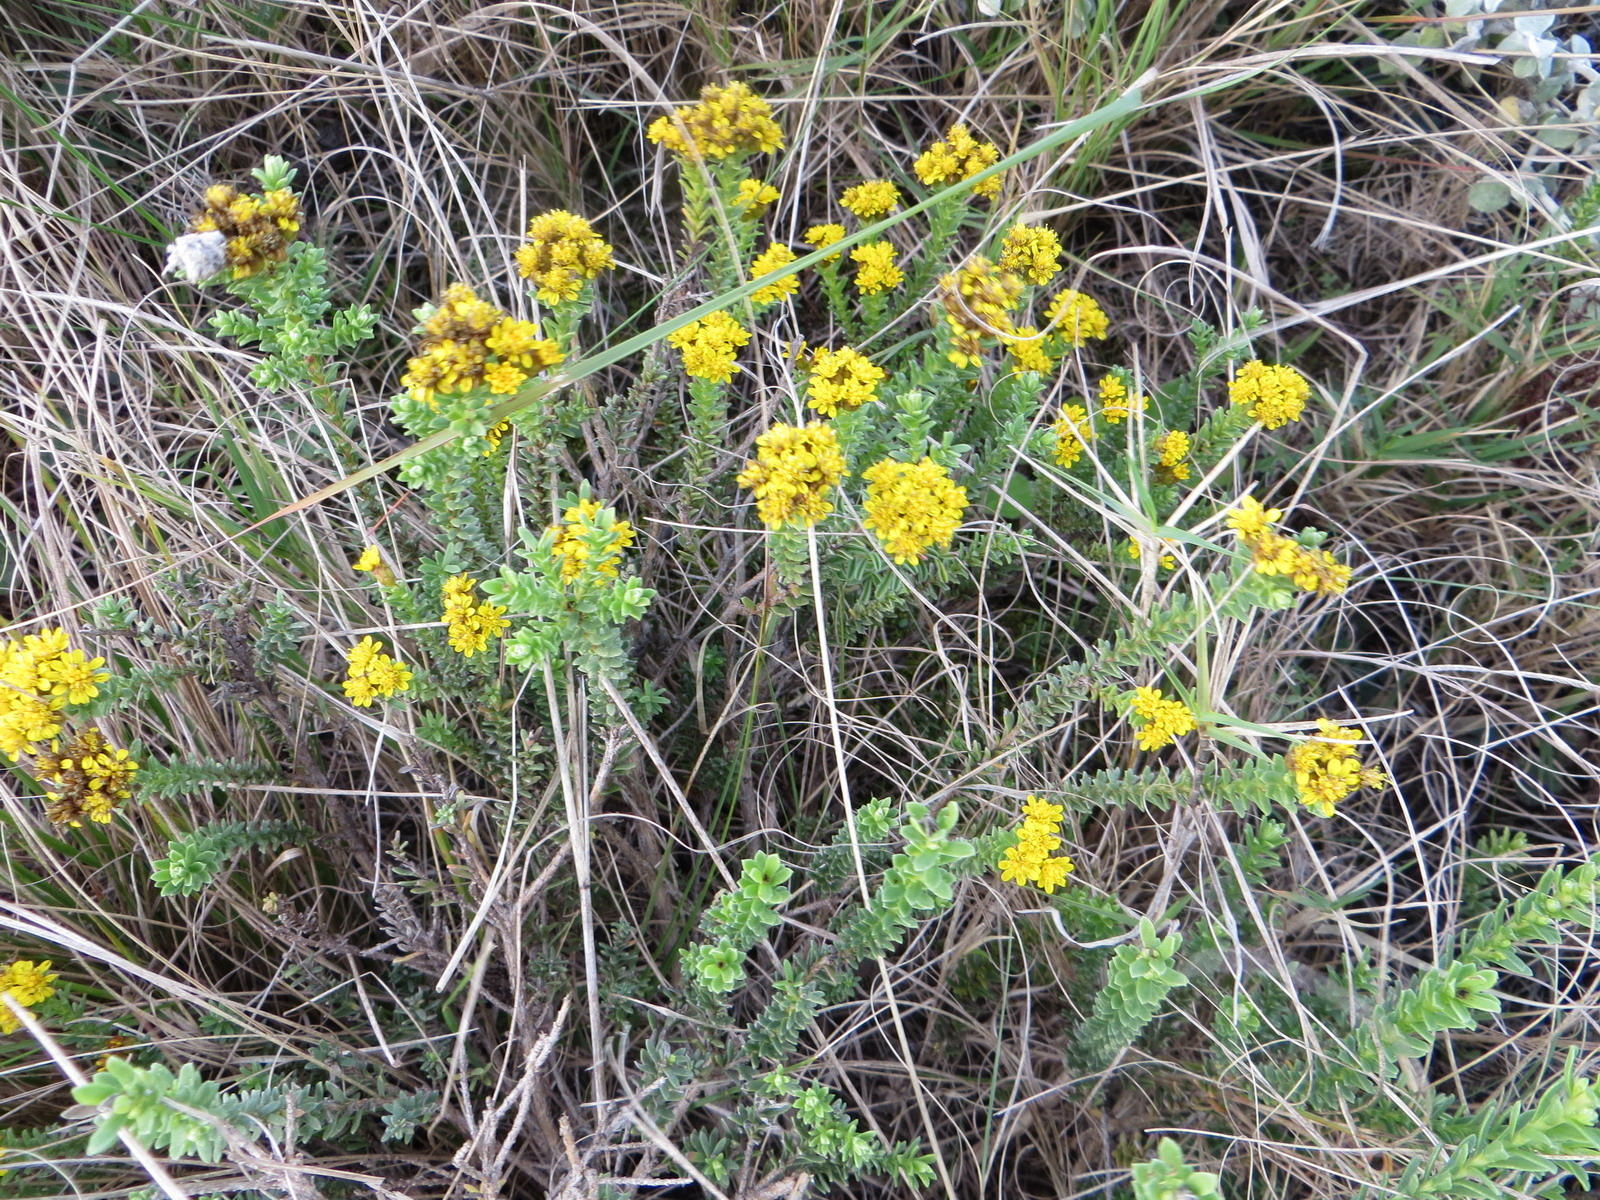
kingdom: Plantae
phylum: Tracheophyta
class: Magnoliopsida
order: Asterales
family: Asteraceae
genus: Oedera
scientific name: Oedera genistifolia
